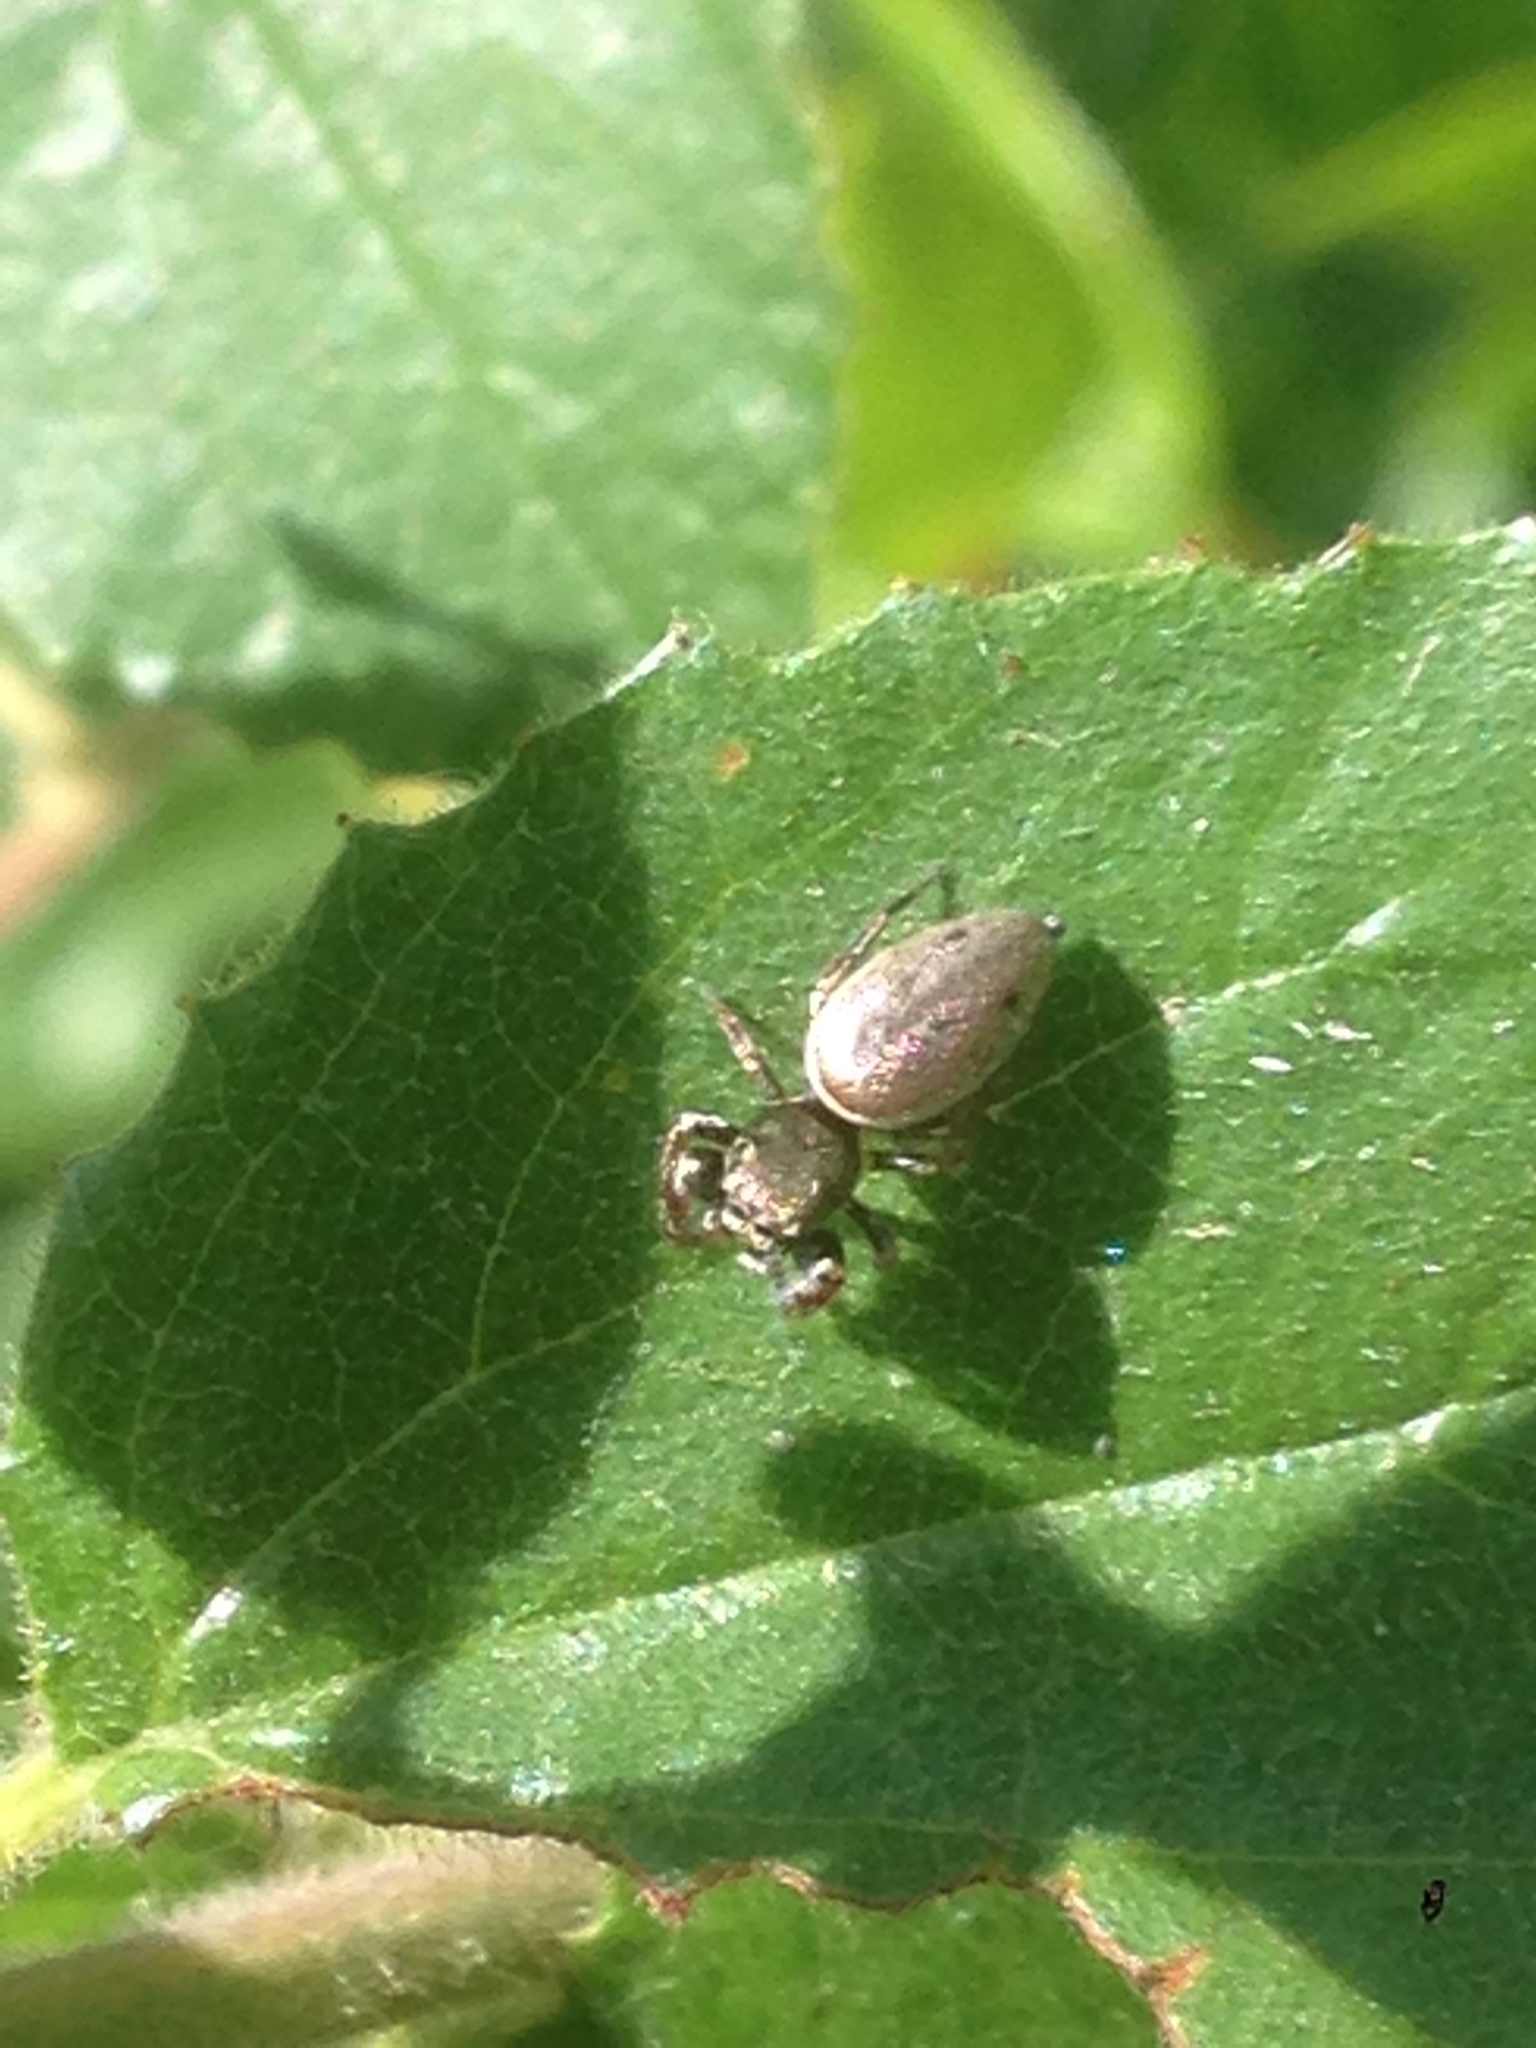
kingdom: Animalia
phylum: Arthropoda
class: Arachnida
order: Araneae
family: Salticidae
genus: Sassacus
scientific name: Sassacus vitis
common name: Jumping spiders
